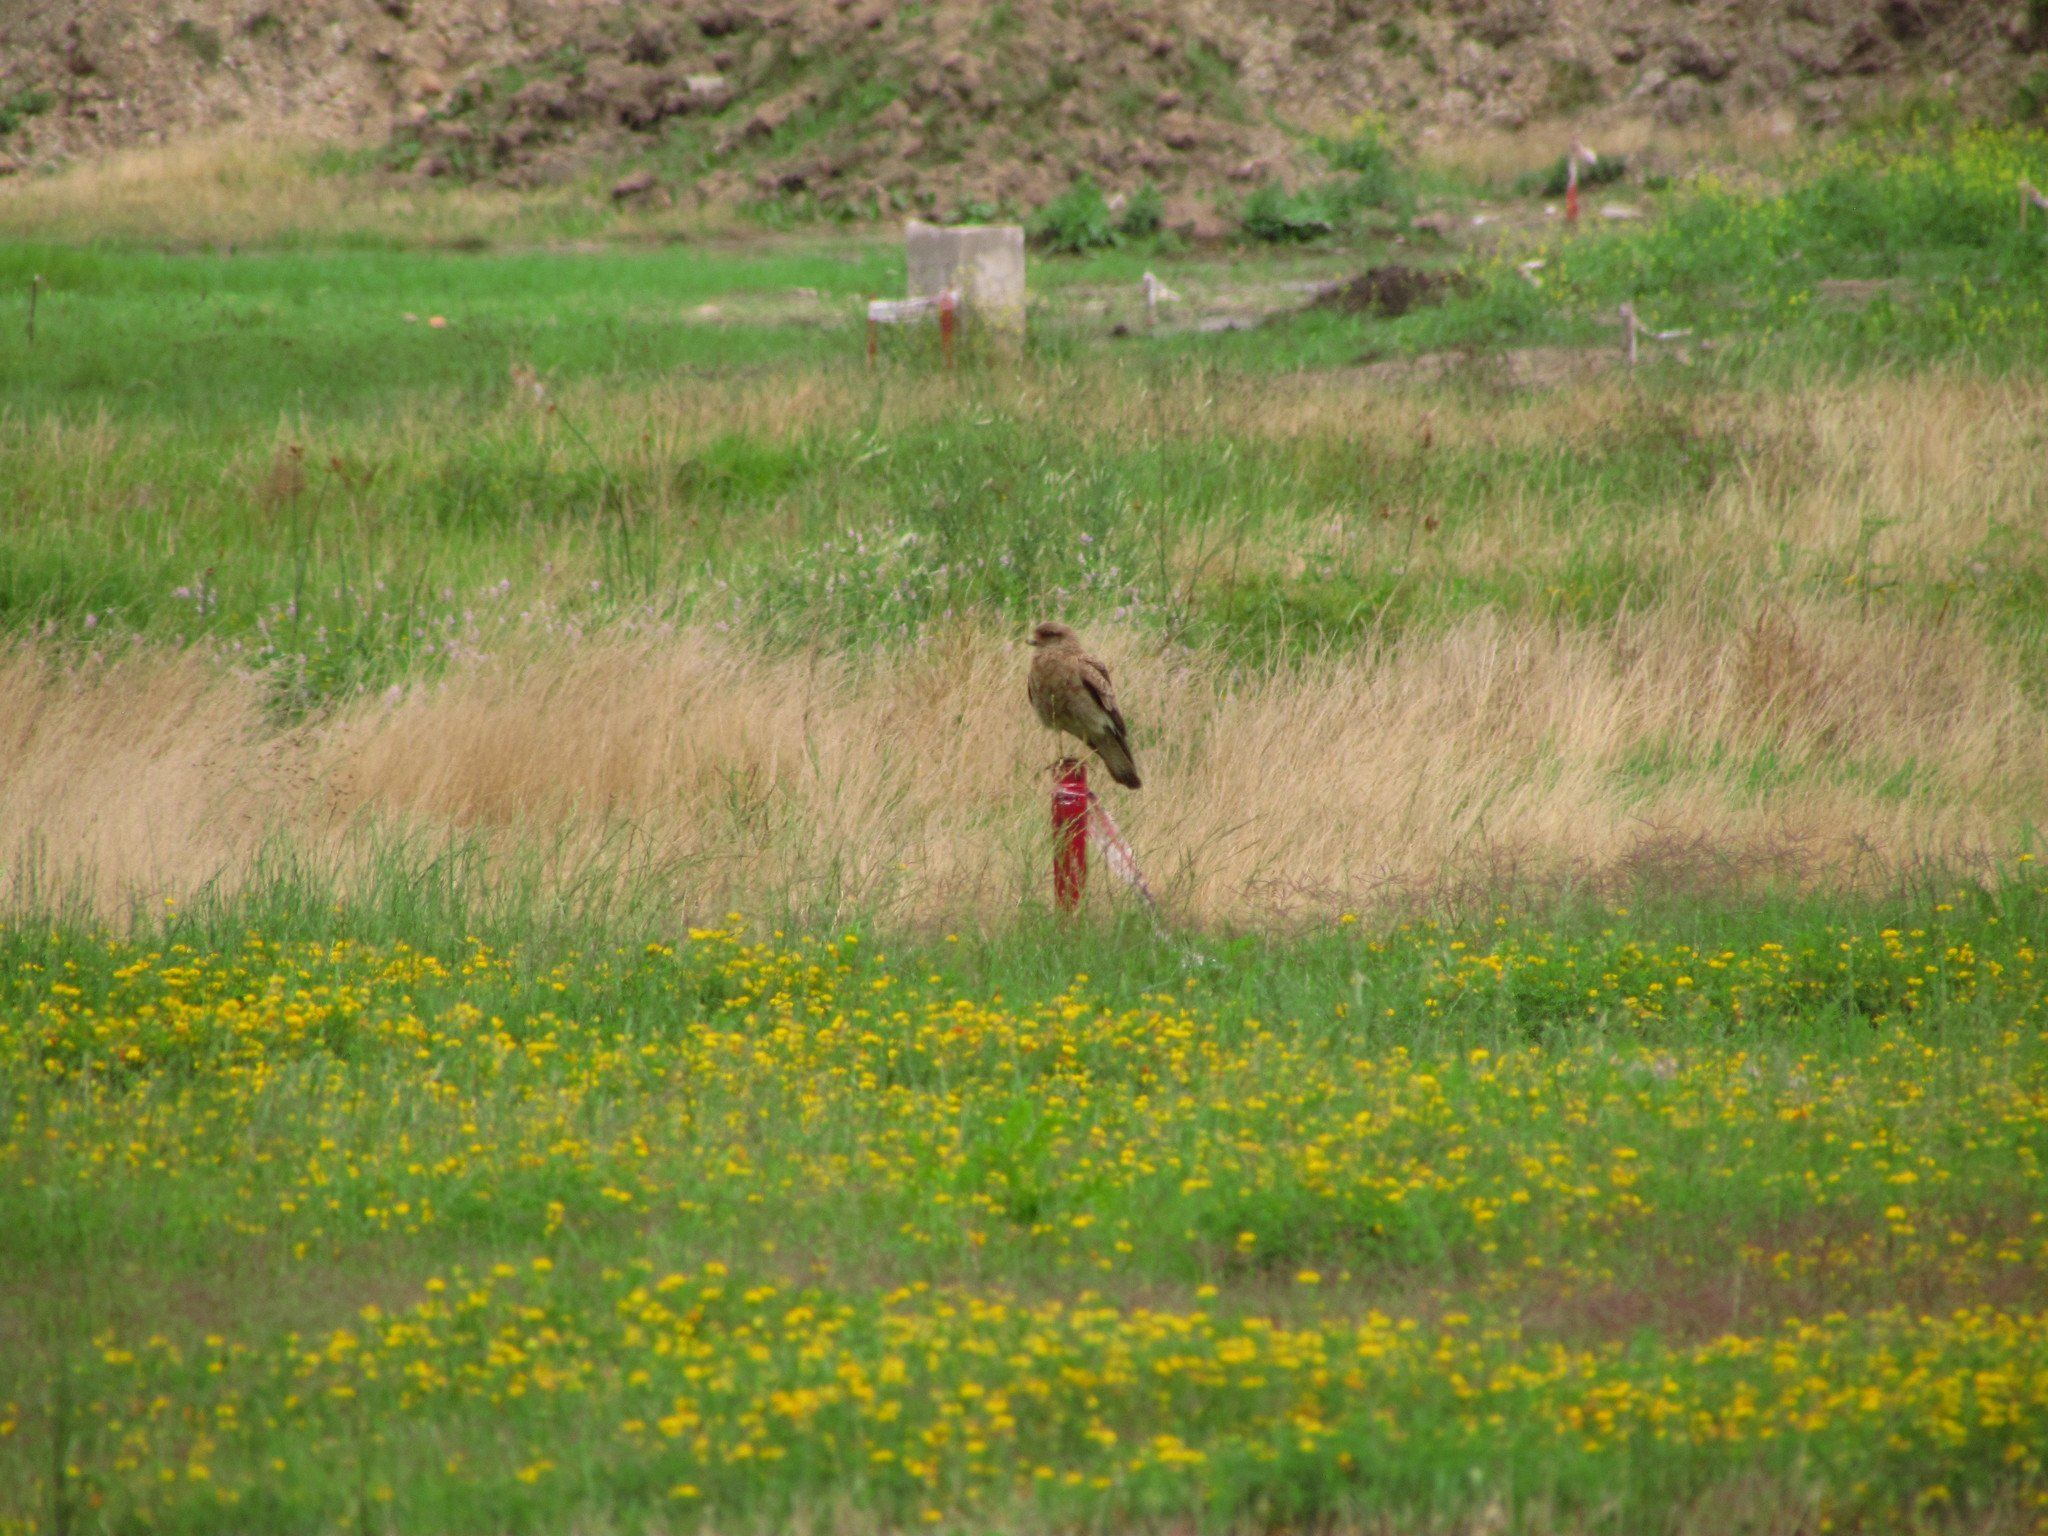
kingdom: Animalia
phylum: Chordata
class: Aves
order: Falconiformes
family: Falconidae
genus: Daptrius
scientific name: Daptrius
